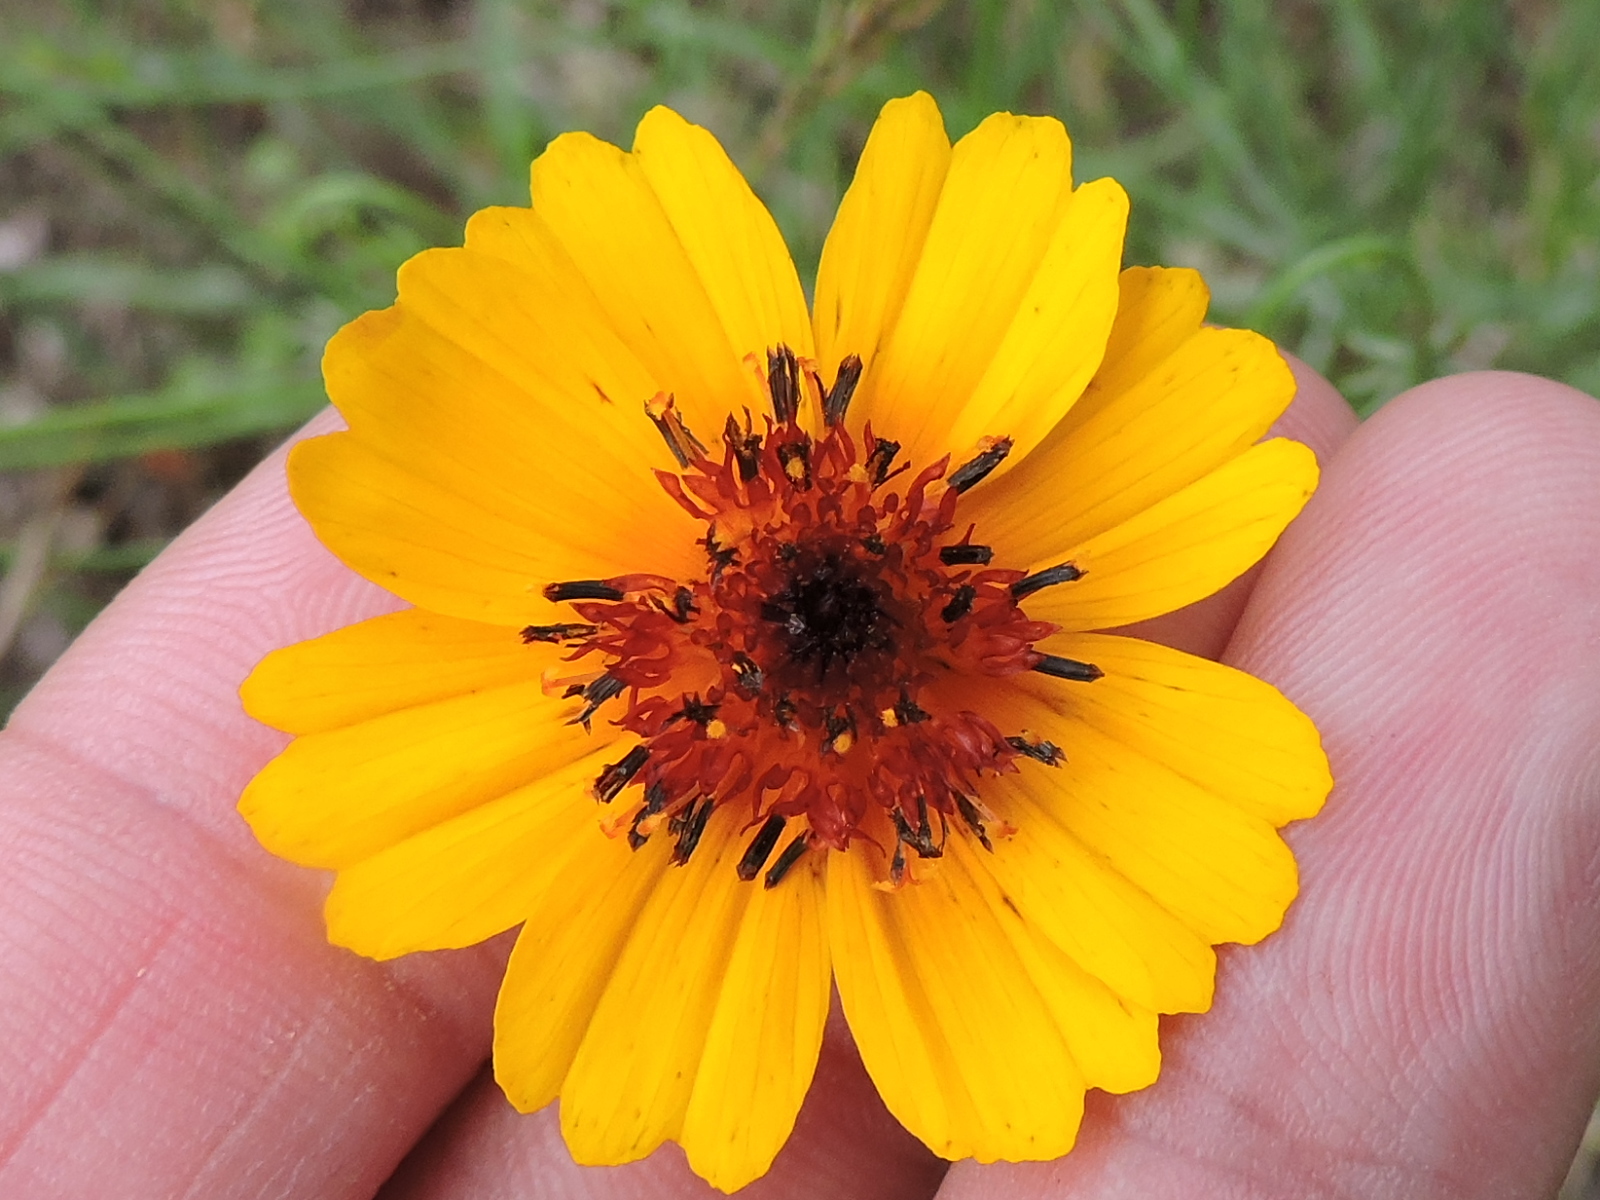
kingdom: Plantae
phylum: Tracheophyta
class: Magnoliopsida
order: Asterales
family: Asteraceae
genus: Thelesperma
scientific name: Thelesperma filifolium
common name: Stiff greenthread
